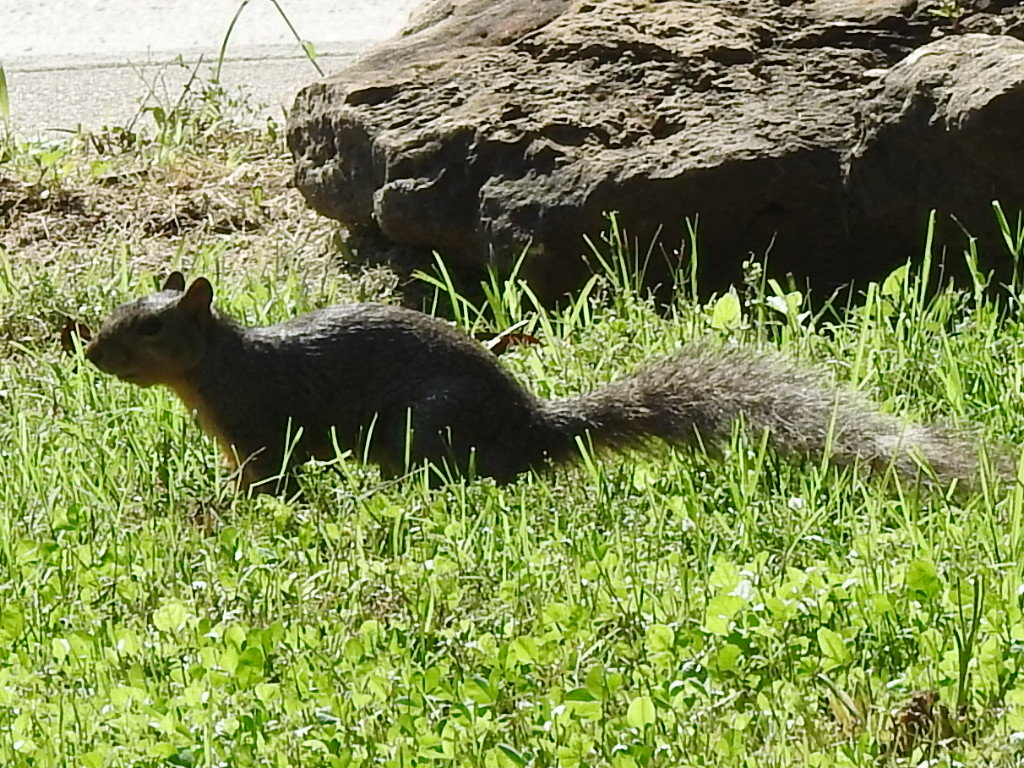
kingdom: Animalia
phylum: Chordata
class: Mammalia
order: Rodentia
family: Sciuridae
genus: Sciurus
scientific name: Sciurus niger
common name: Fox squirrel
